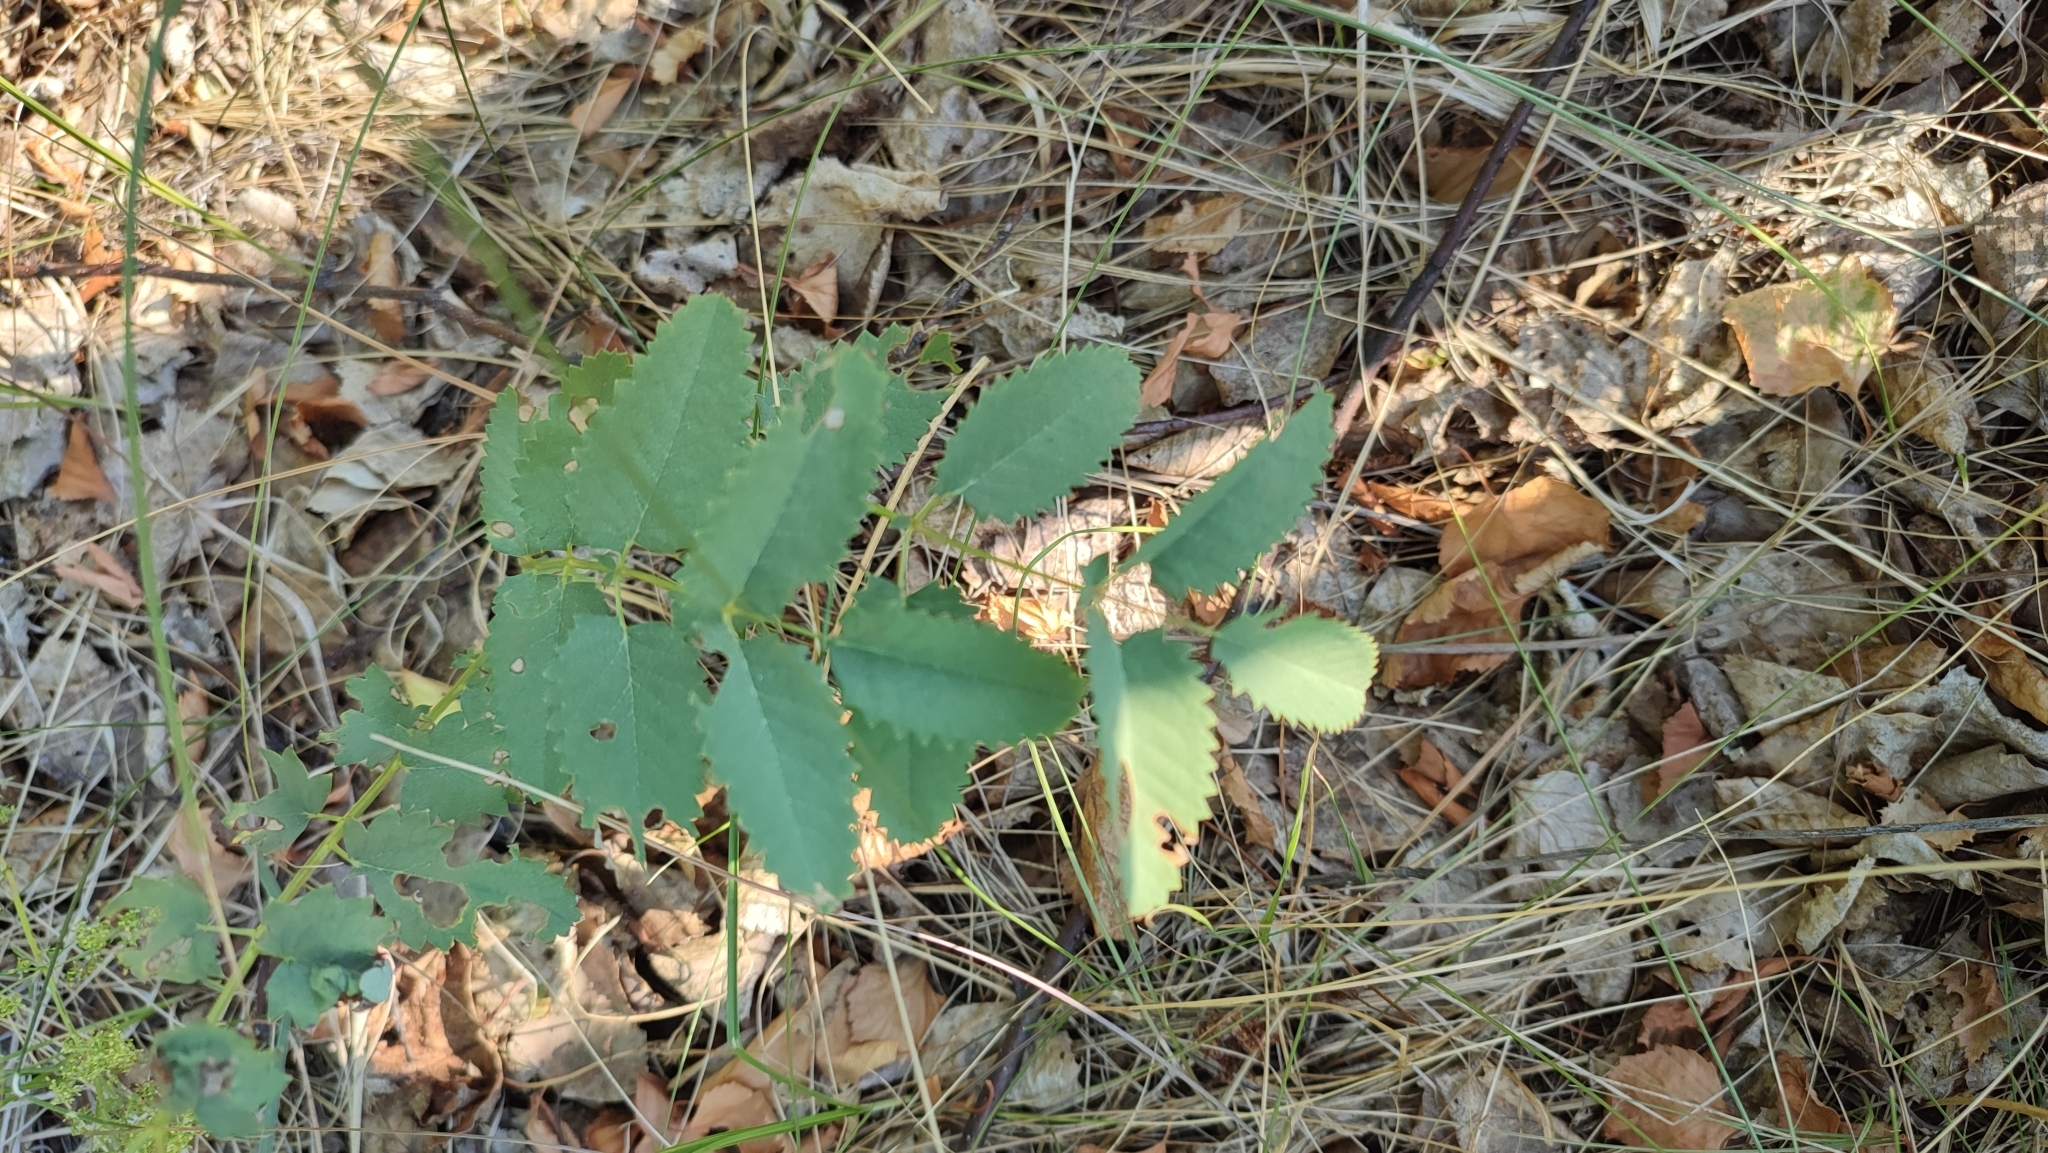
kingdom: Plantae
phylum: Tracheophyta
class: Magnoliopsida
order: Rosales
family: Rosaceae
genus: Sanguisorba
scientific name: Sanguisorba officinalis
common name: Great burnet
